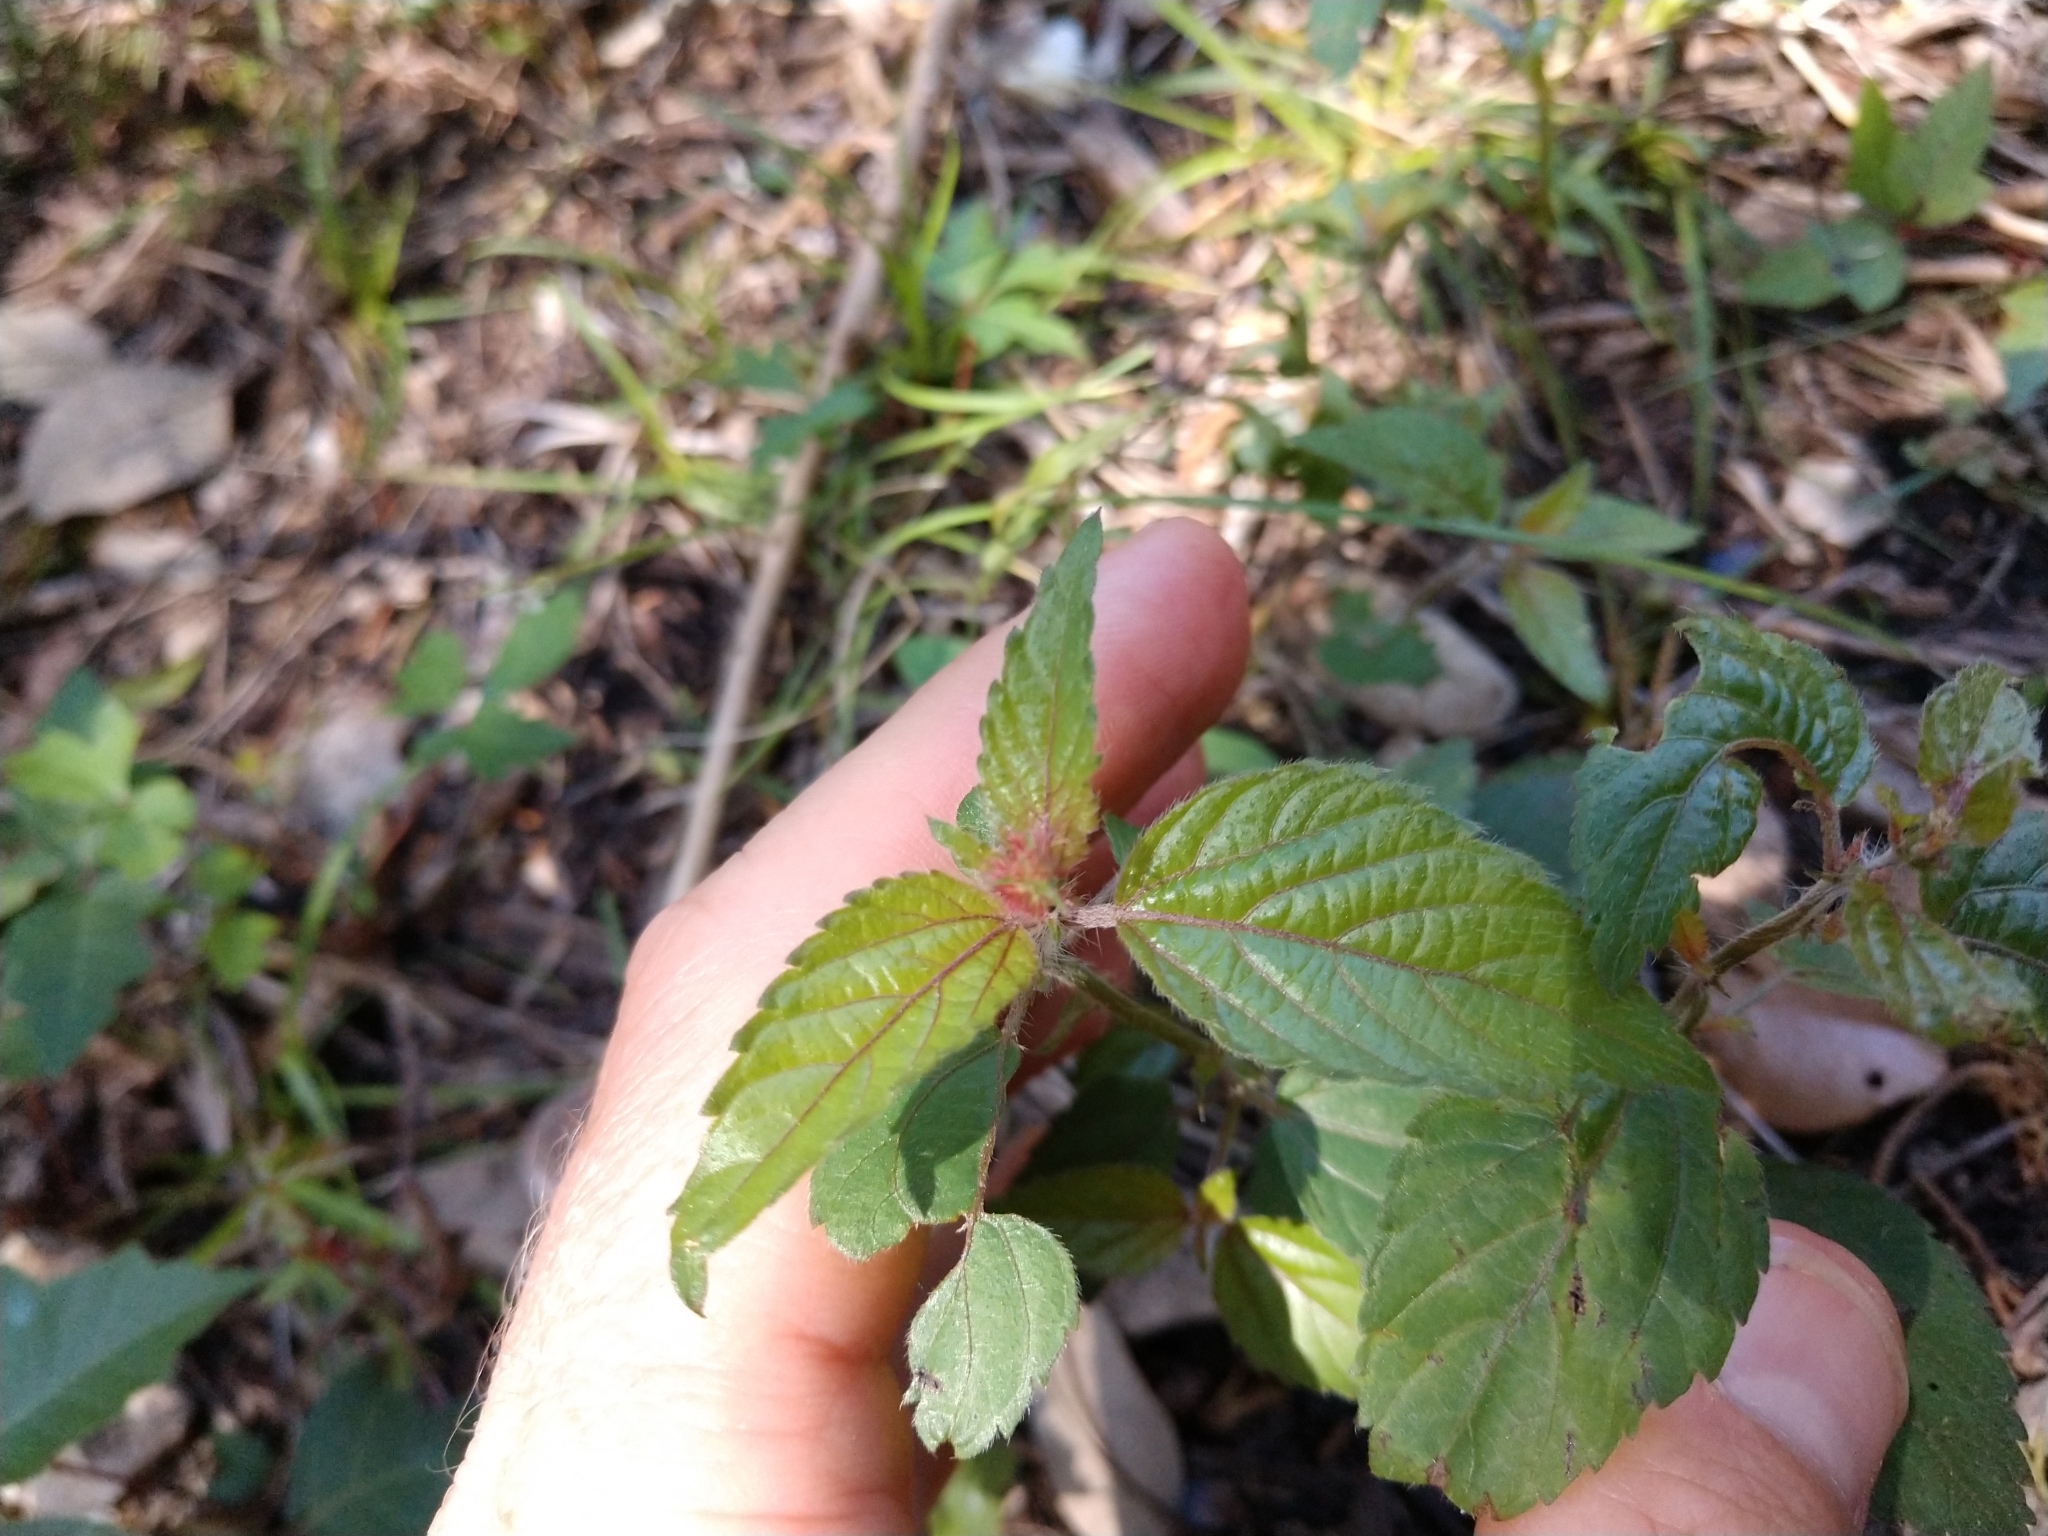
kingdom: Plantae
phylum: Tracheophyta
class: Magnoliopsida
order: Malpighiales
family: Euphorbiaceae
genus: Acalypha
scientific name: Acalypha phleoides
